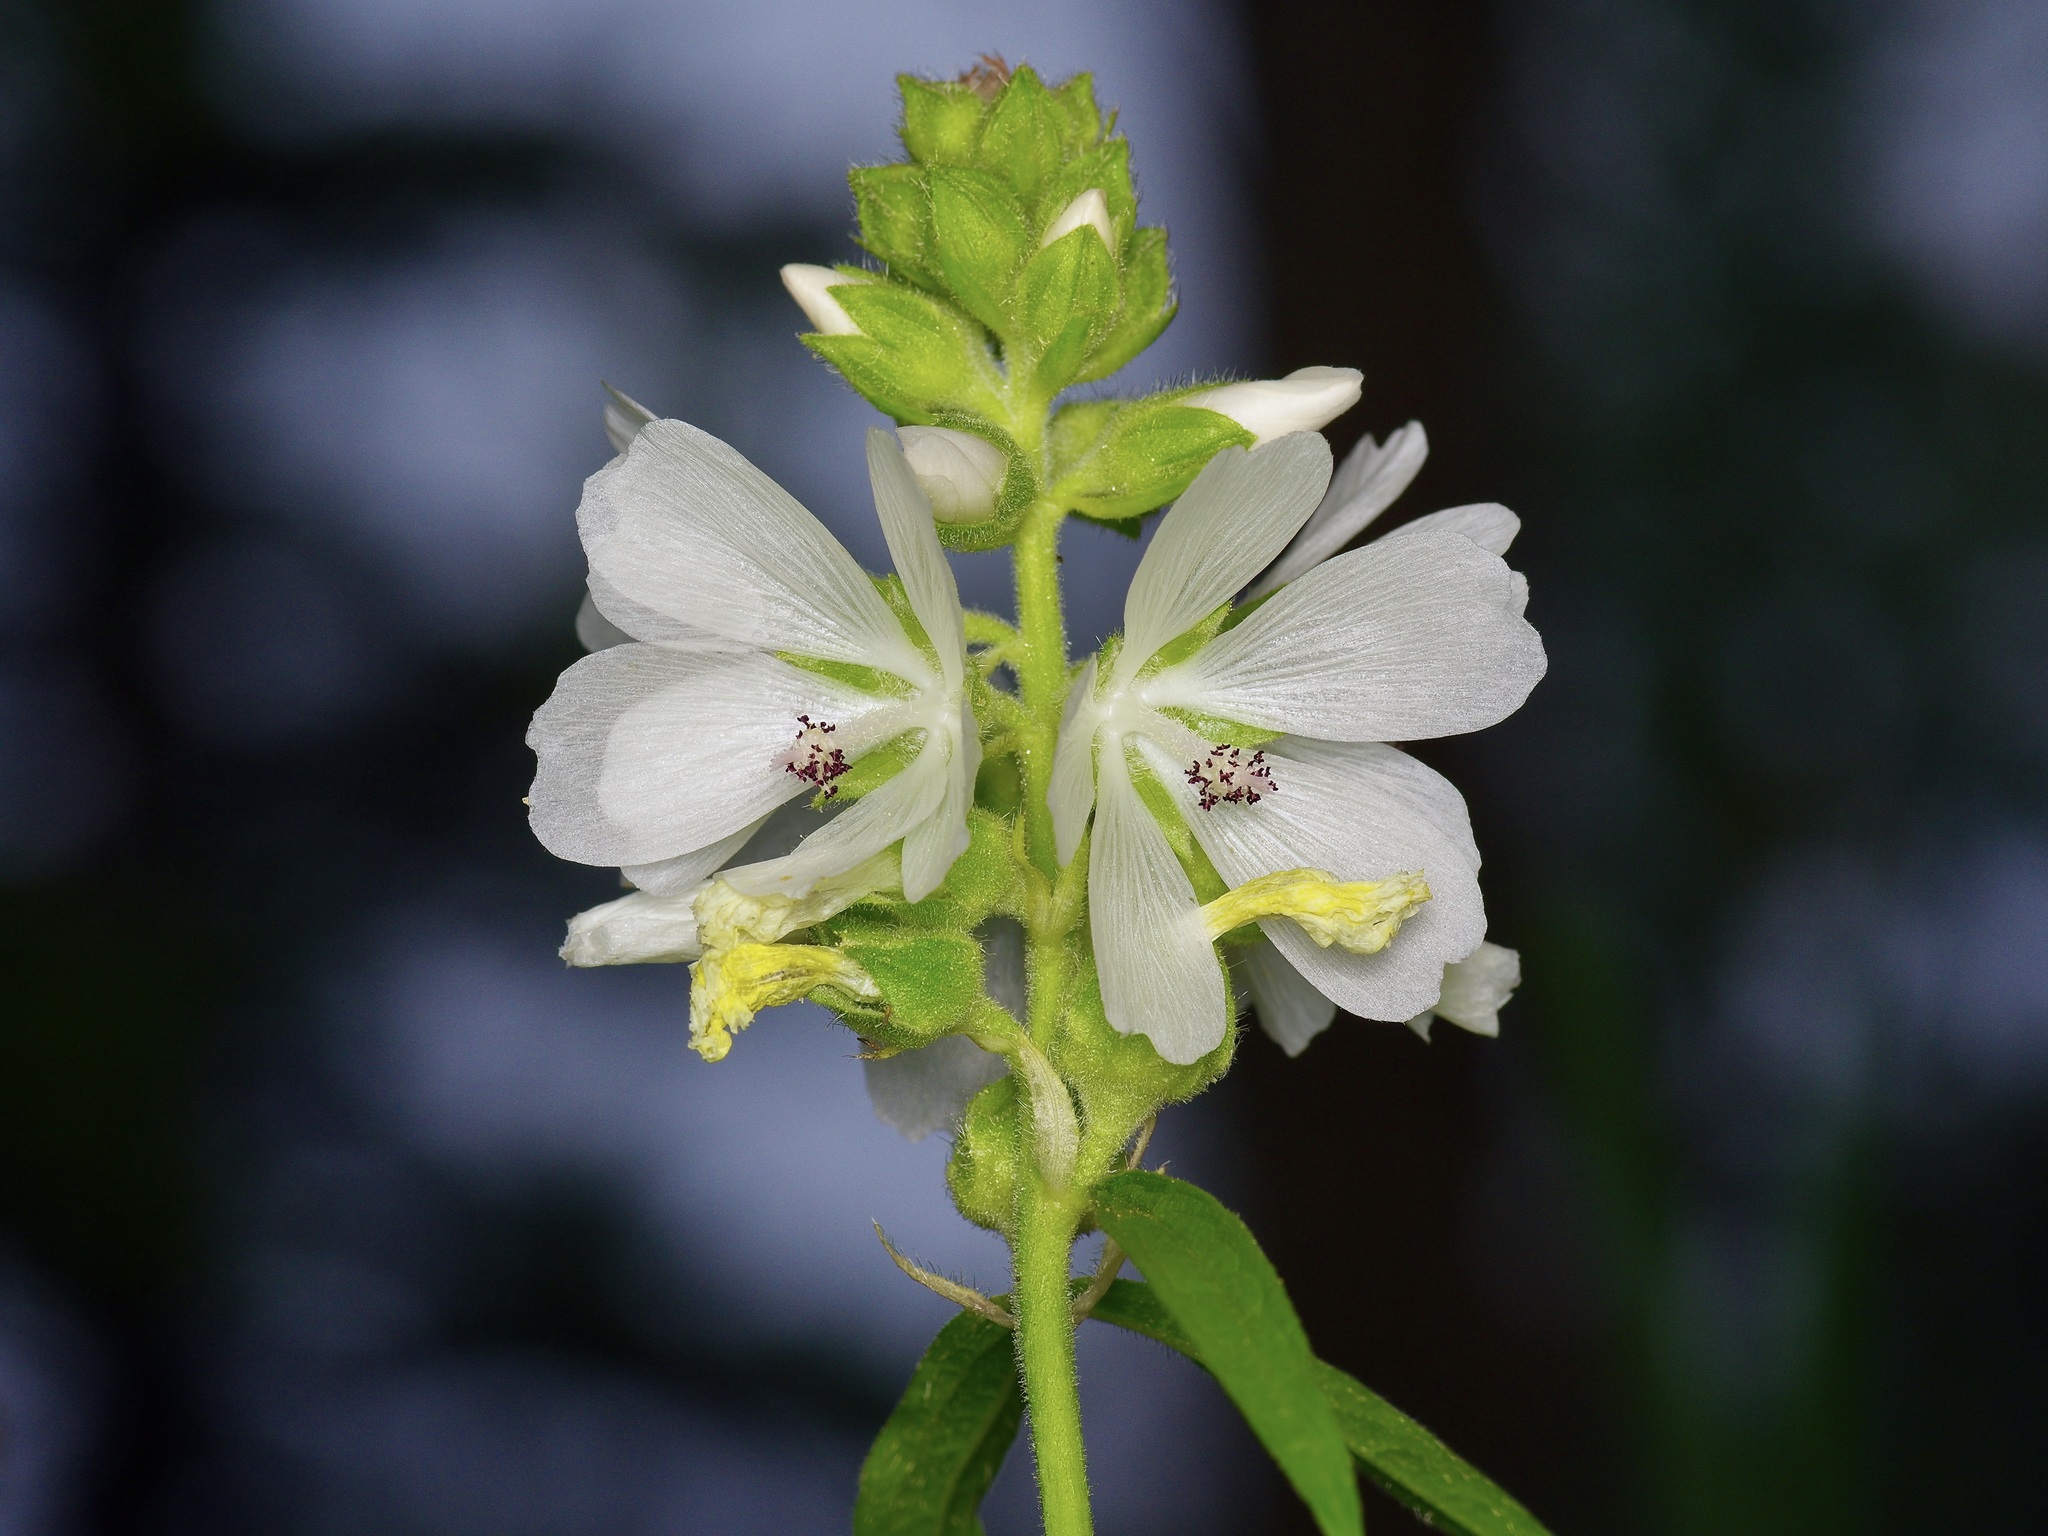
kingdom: Plantae
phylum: Tracheophyta
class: Magnoliopsida
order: Malvales
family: Malvaceae
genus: Sidalcea
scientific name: Sidalcea candida
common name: Prairie-mallow
